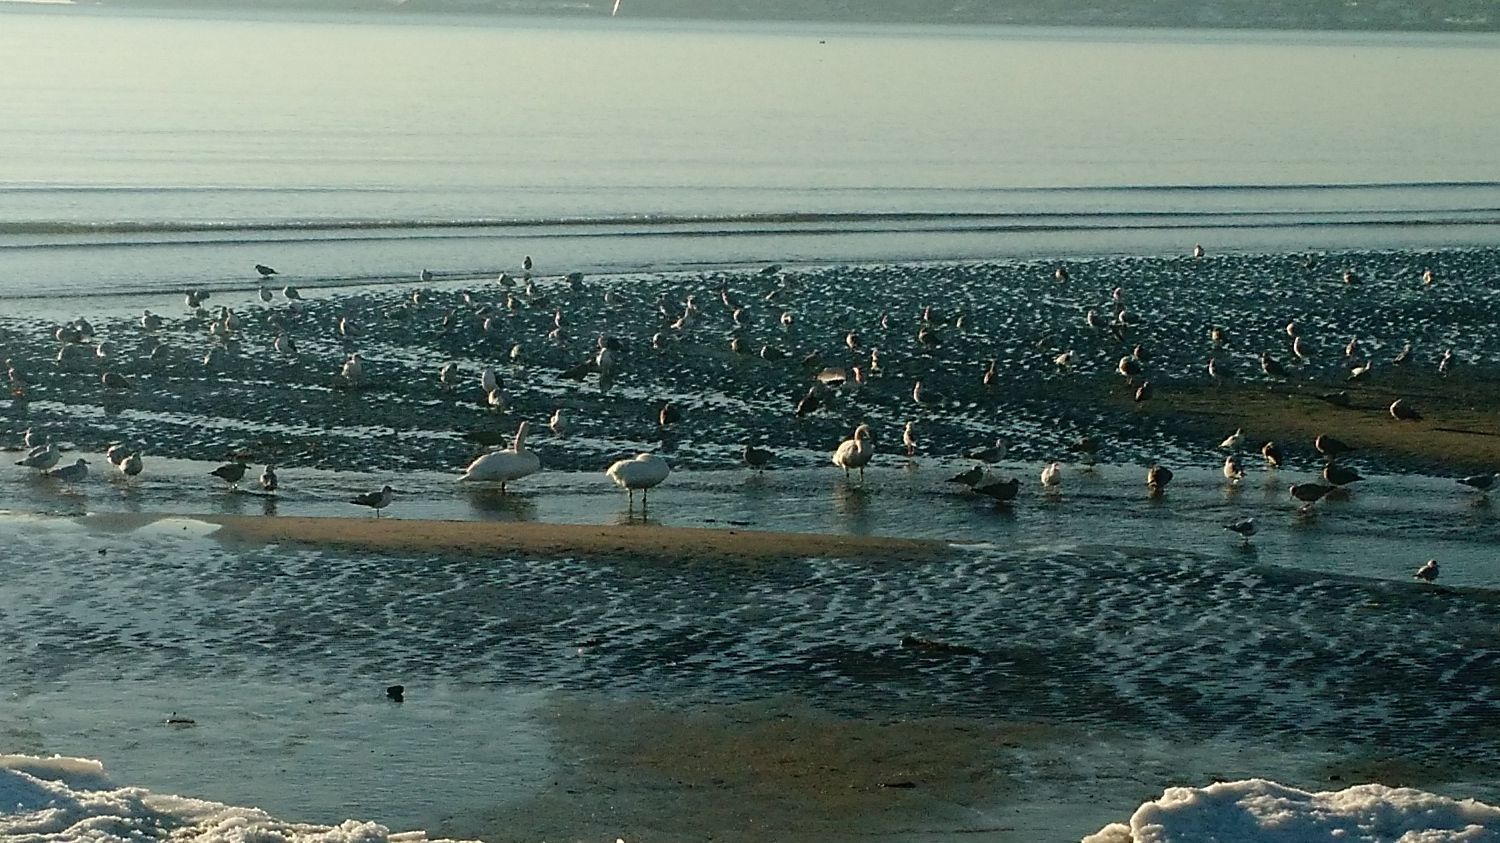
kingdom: Animalia
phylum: Chordata
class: Aves
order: Anseriformes
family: Anatidae
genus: Cygnus
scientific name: Cygnus olor
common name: Mute swan
